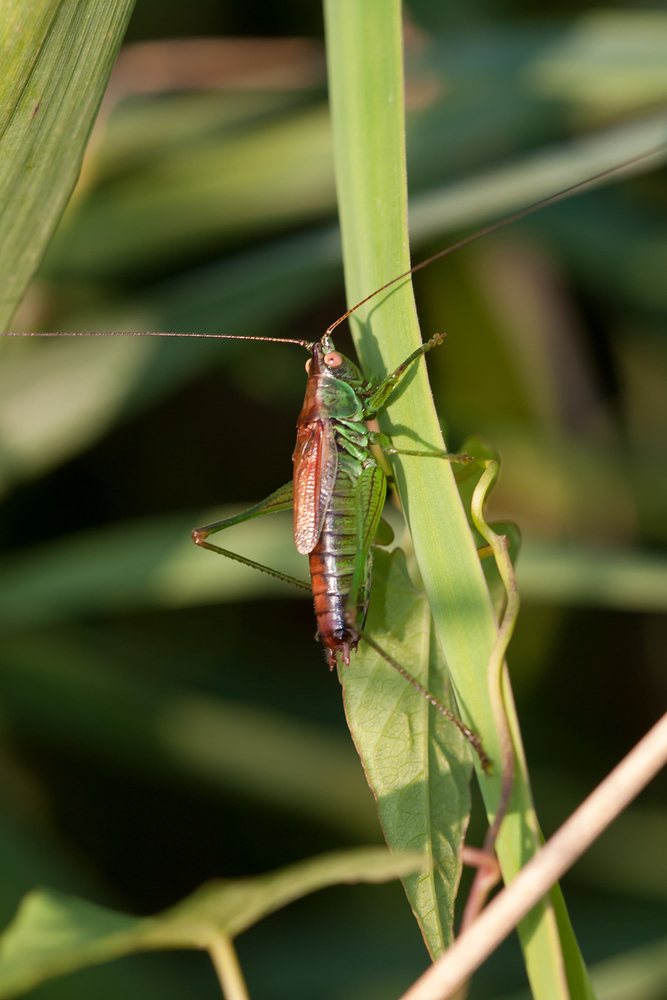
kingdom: Animalia
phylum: Arthropoda
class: Insecta
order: Orthoptera
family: Tettigoniidae
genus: Conocephalus
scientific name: Conocephalus dorsalis
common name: Short-winged conehead
